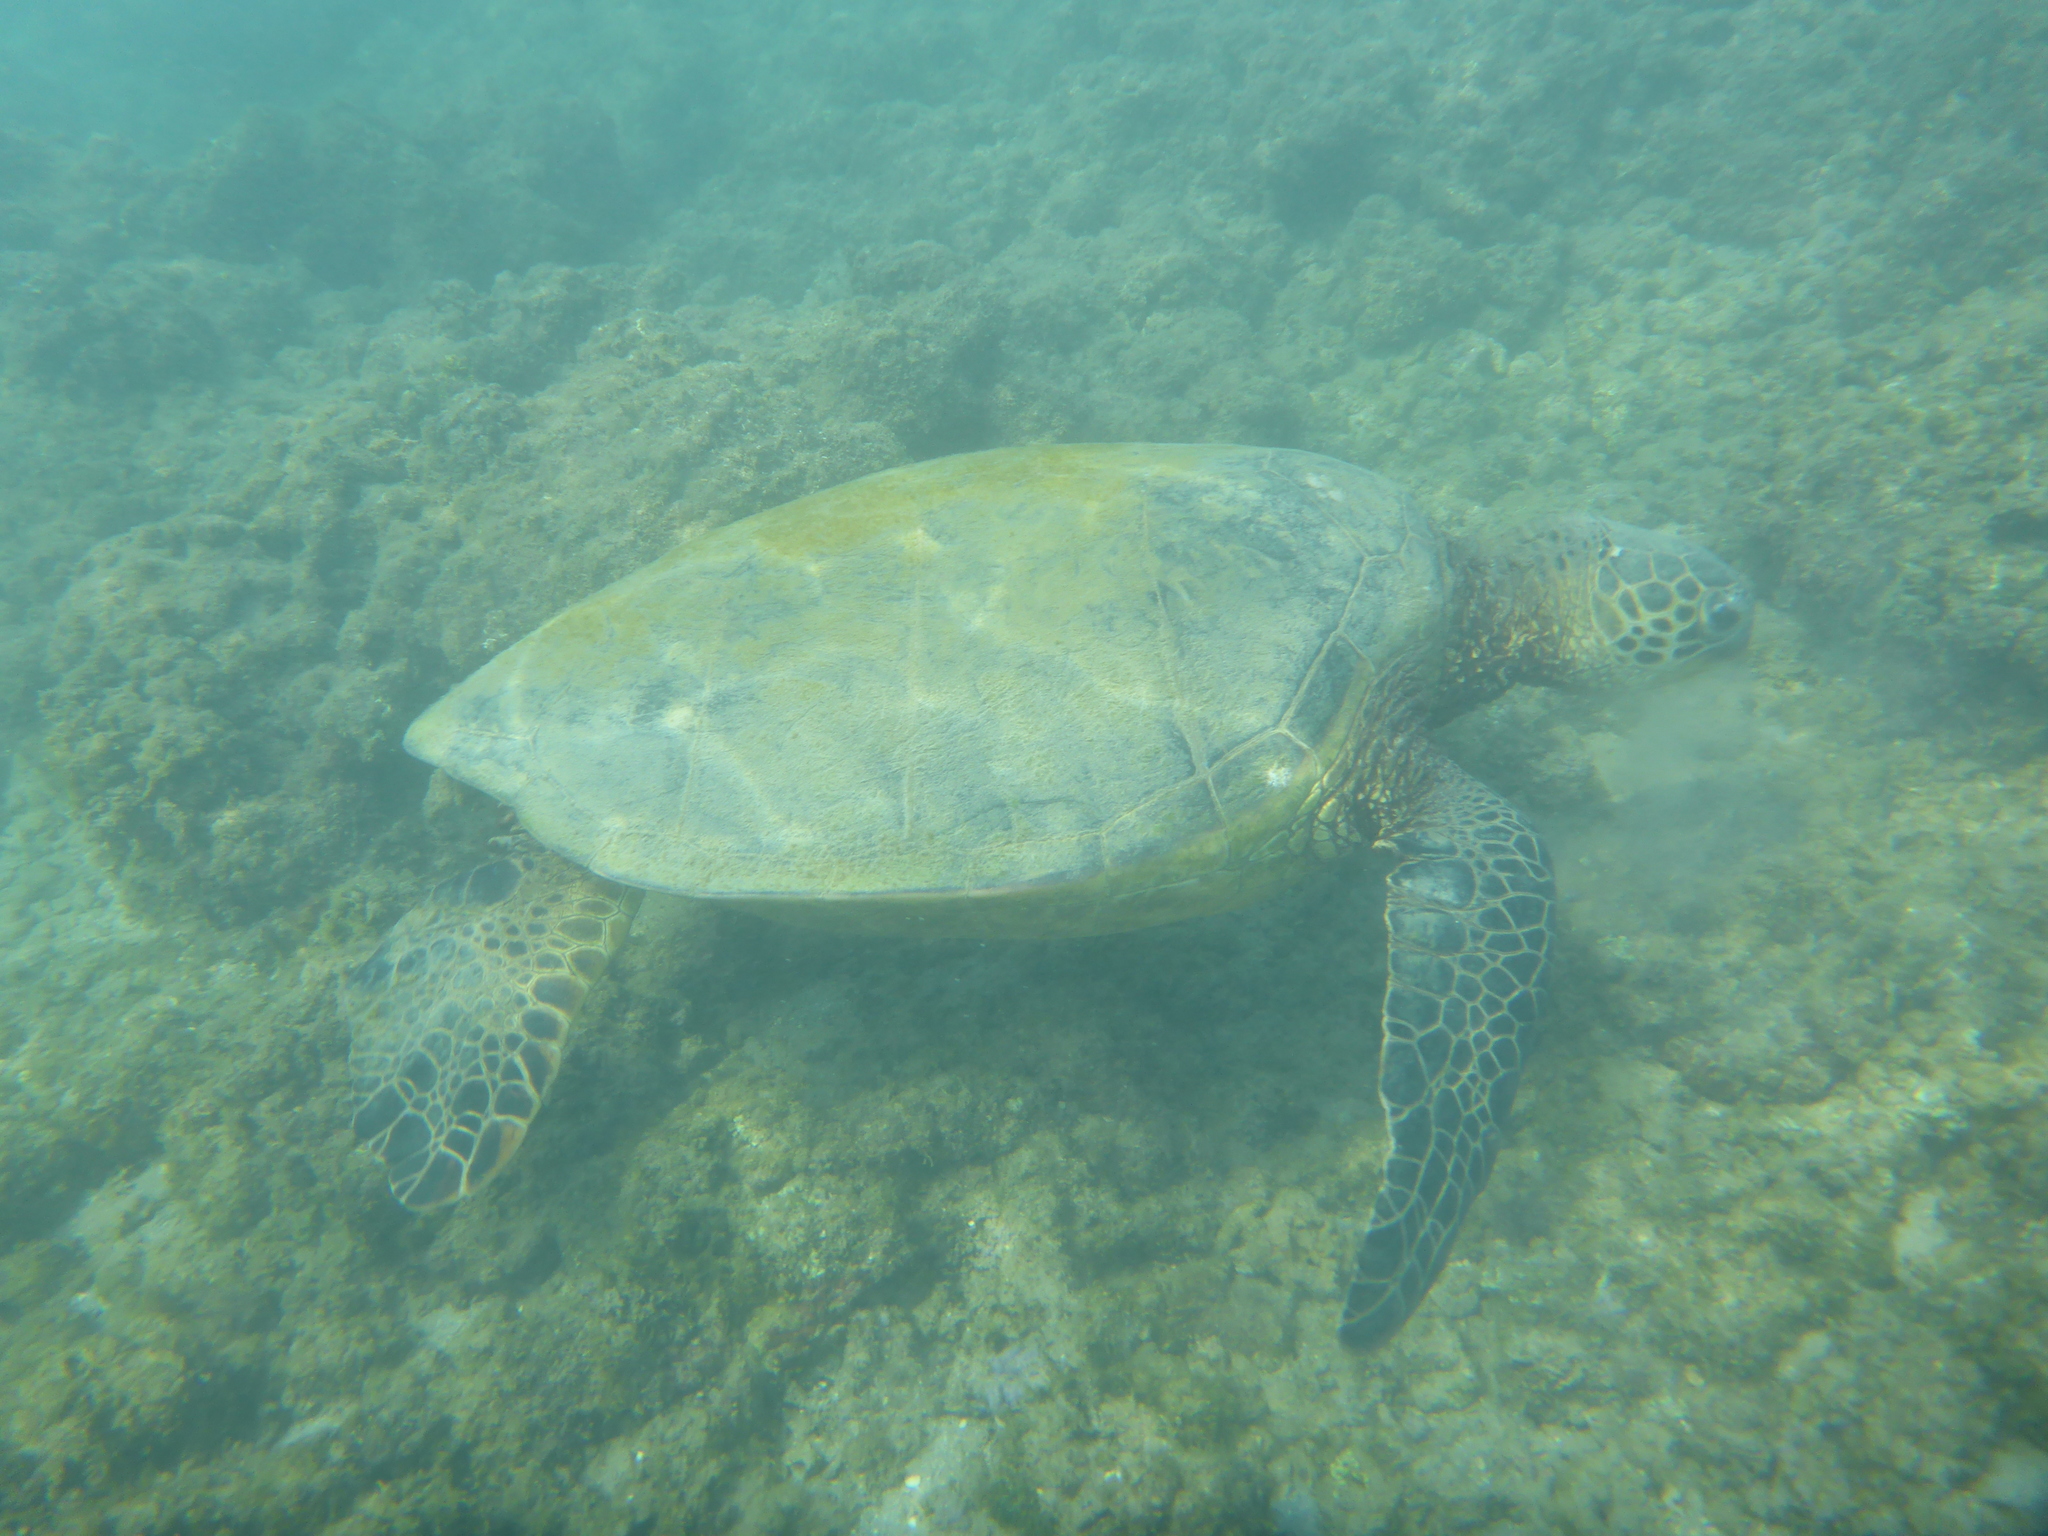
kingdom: Animalia
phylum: Chordata
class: Testudines
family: Cheloniidae
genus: Chelonia
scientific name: Chelonia mydas
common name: Green turtle
